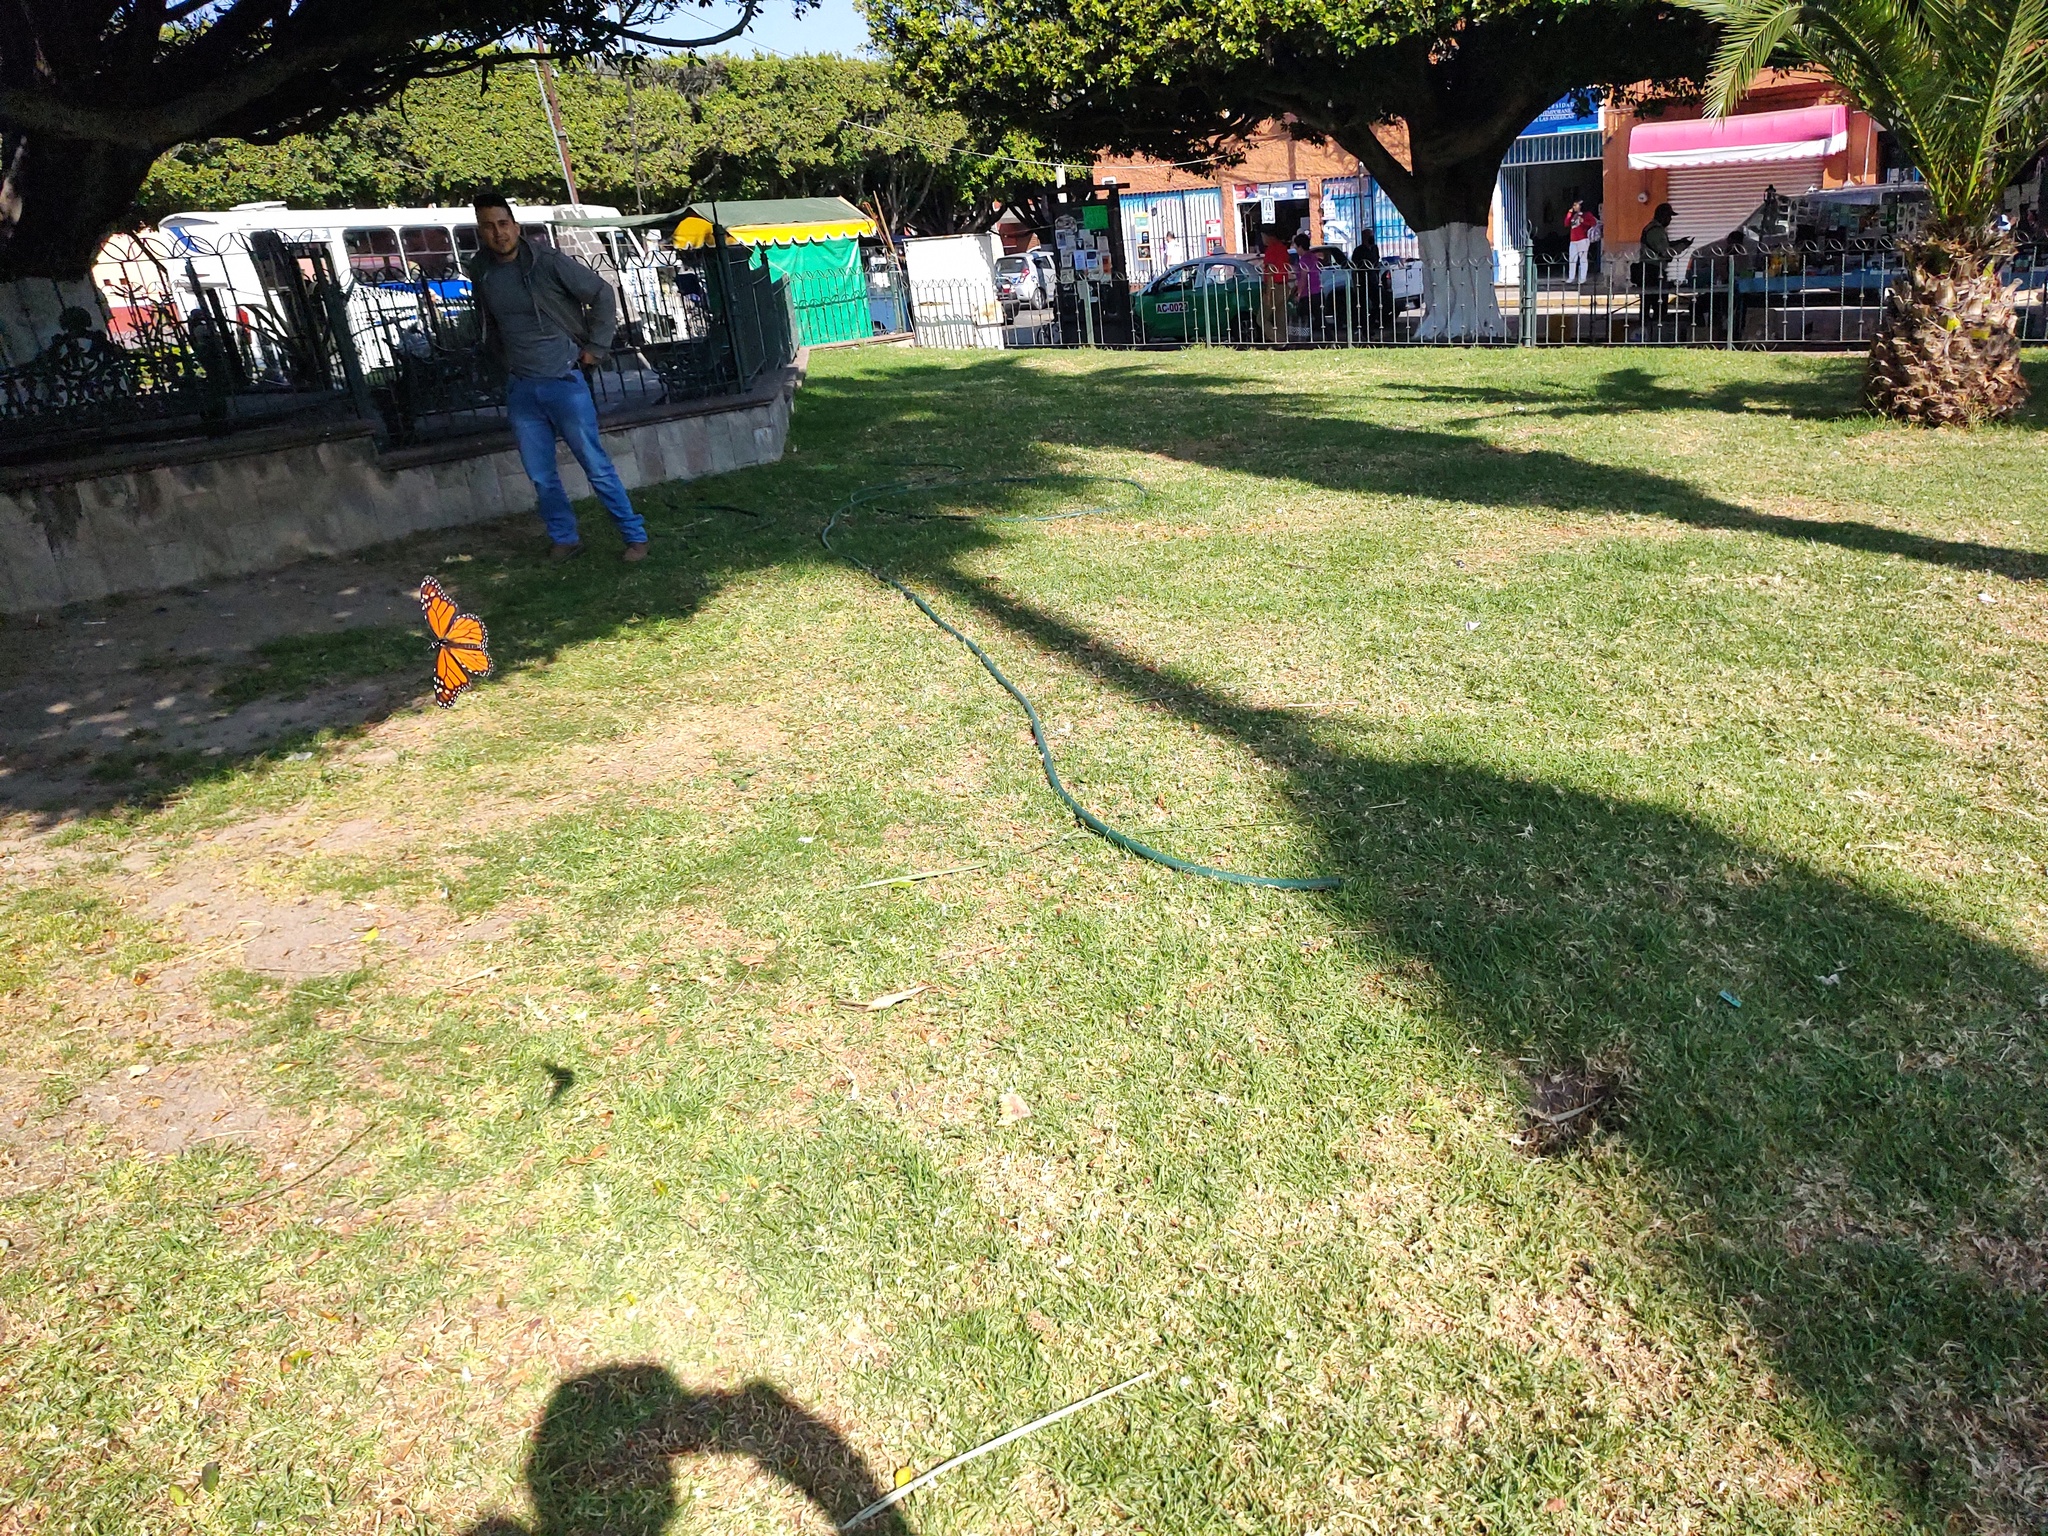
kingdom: Animalia
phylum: Arthropoda
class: Insecta
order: Lepidoptera
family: Nymphalidae
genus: Danaus
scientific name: Danaus plexippus
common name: Monarch
